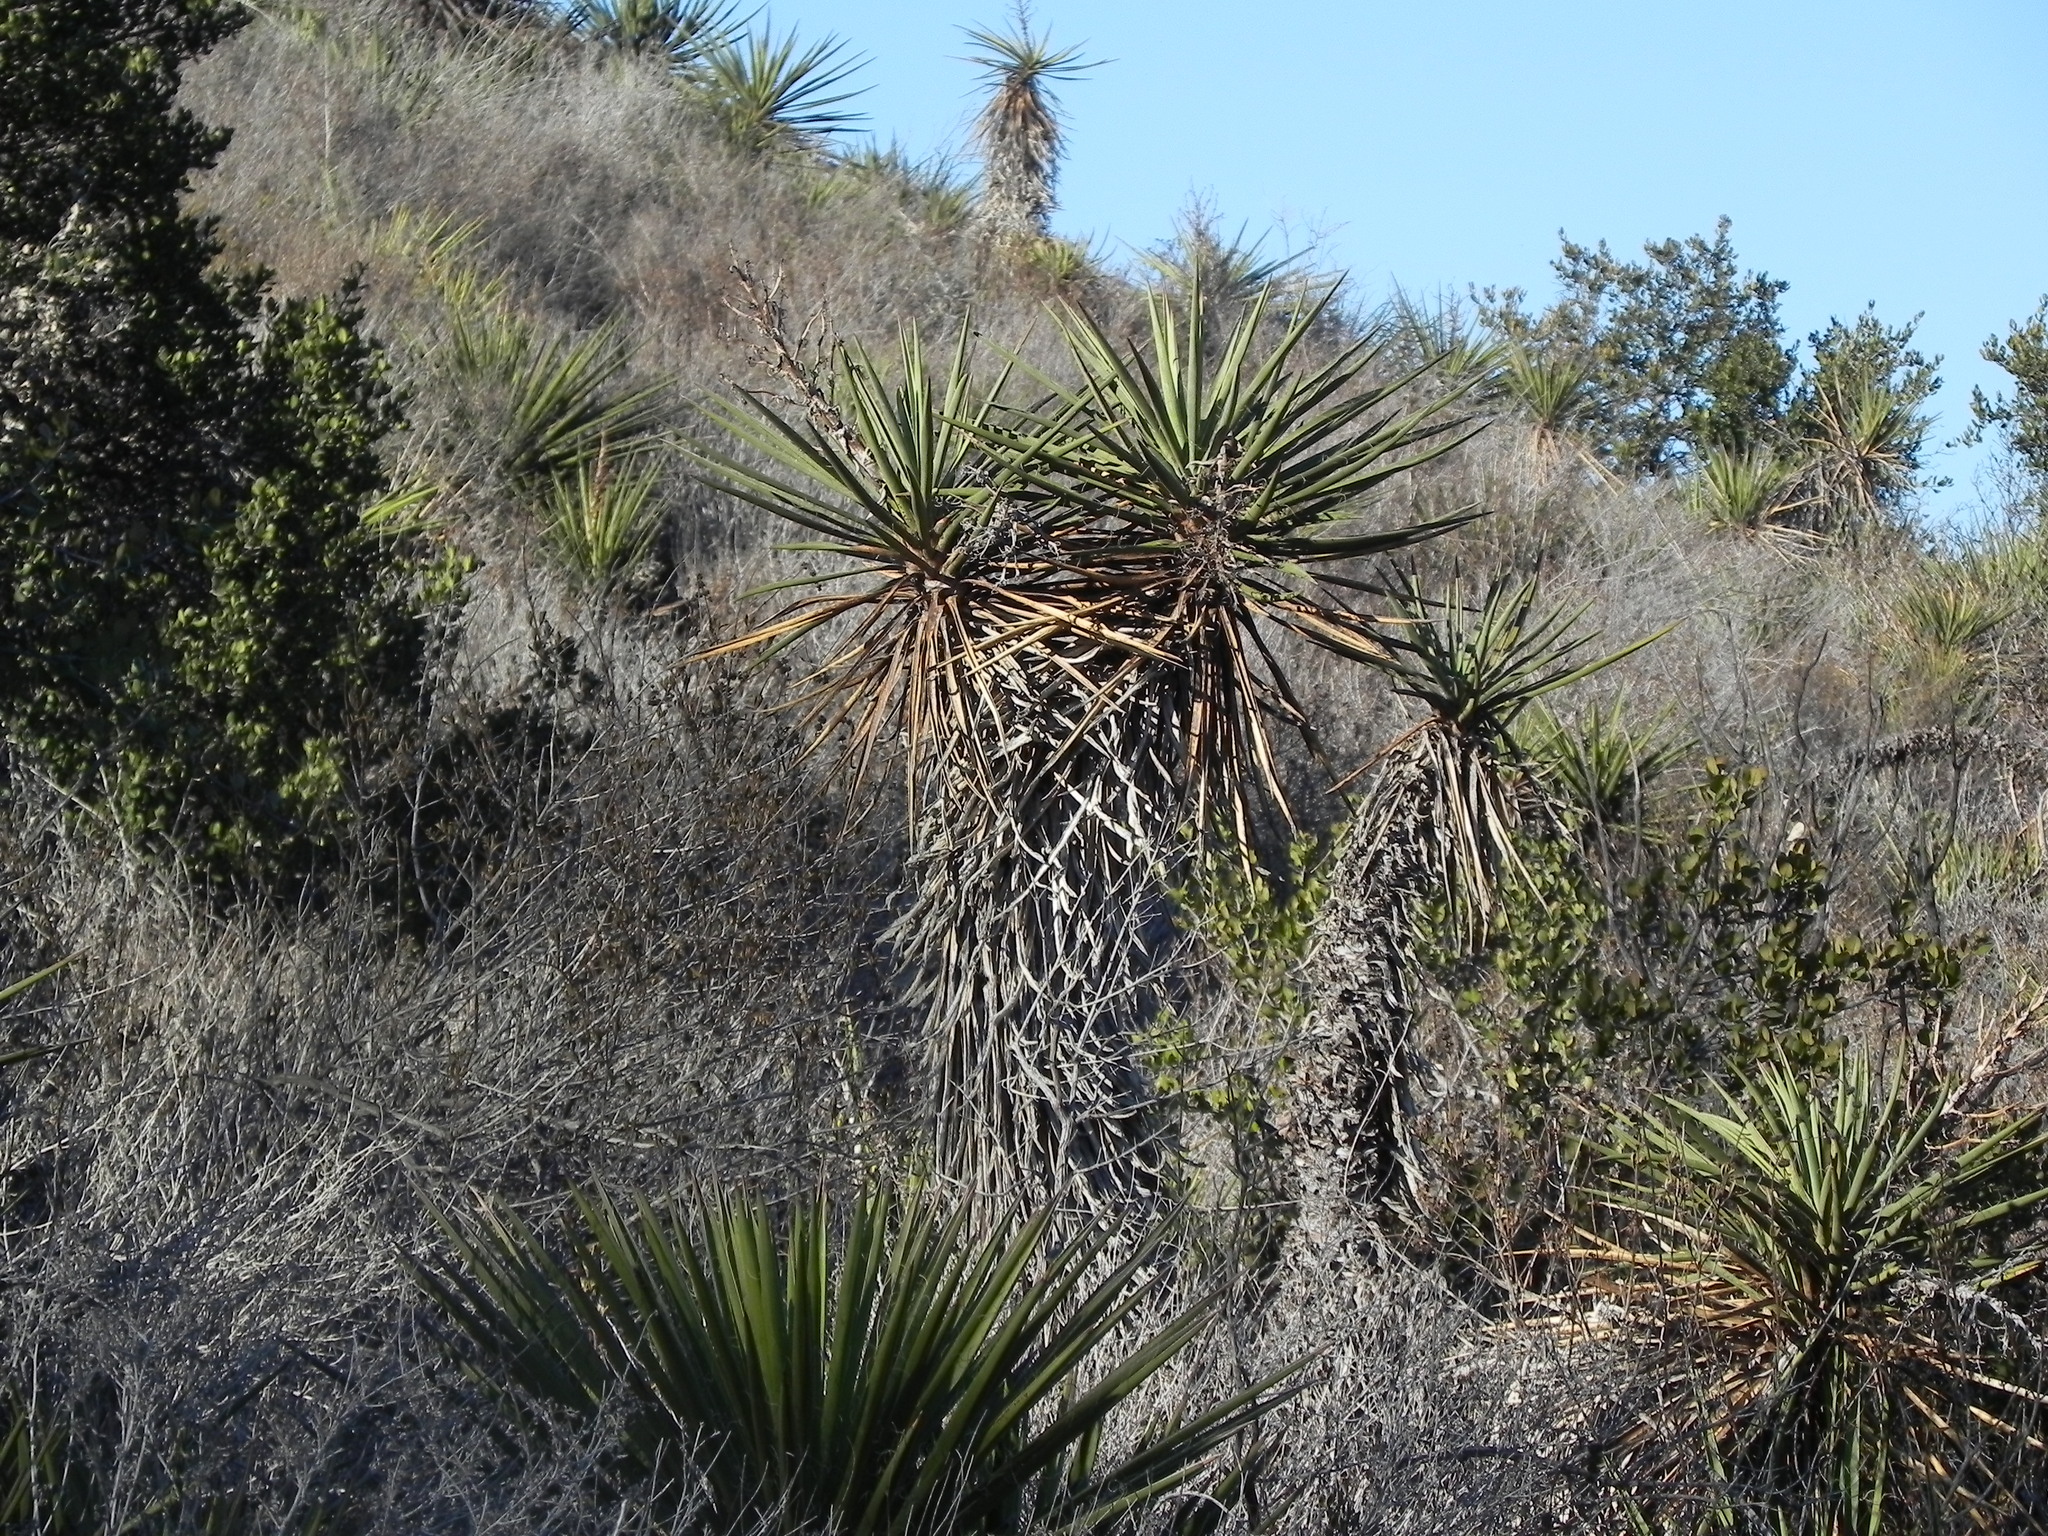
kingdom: Plantae
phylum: Tracheophyta
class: Liliopsida
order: Asparagales
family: Asparagaceae
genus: Yucca
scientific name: Yucca schidigera
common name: Mojave yucca
